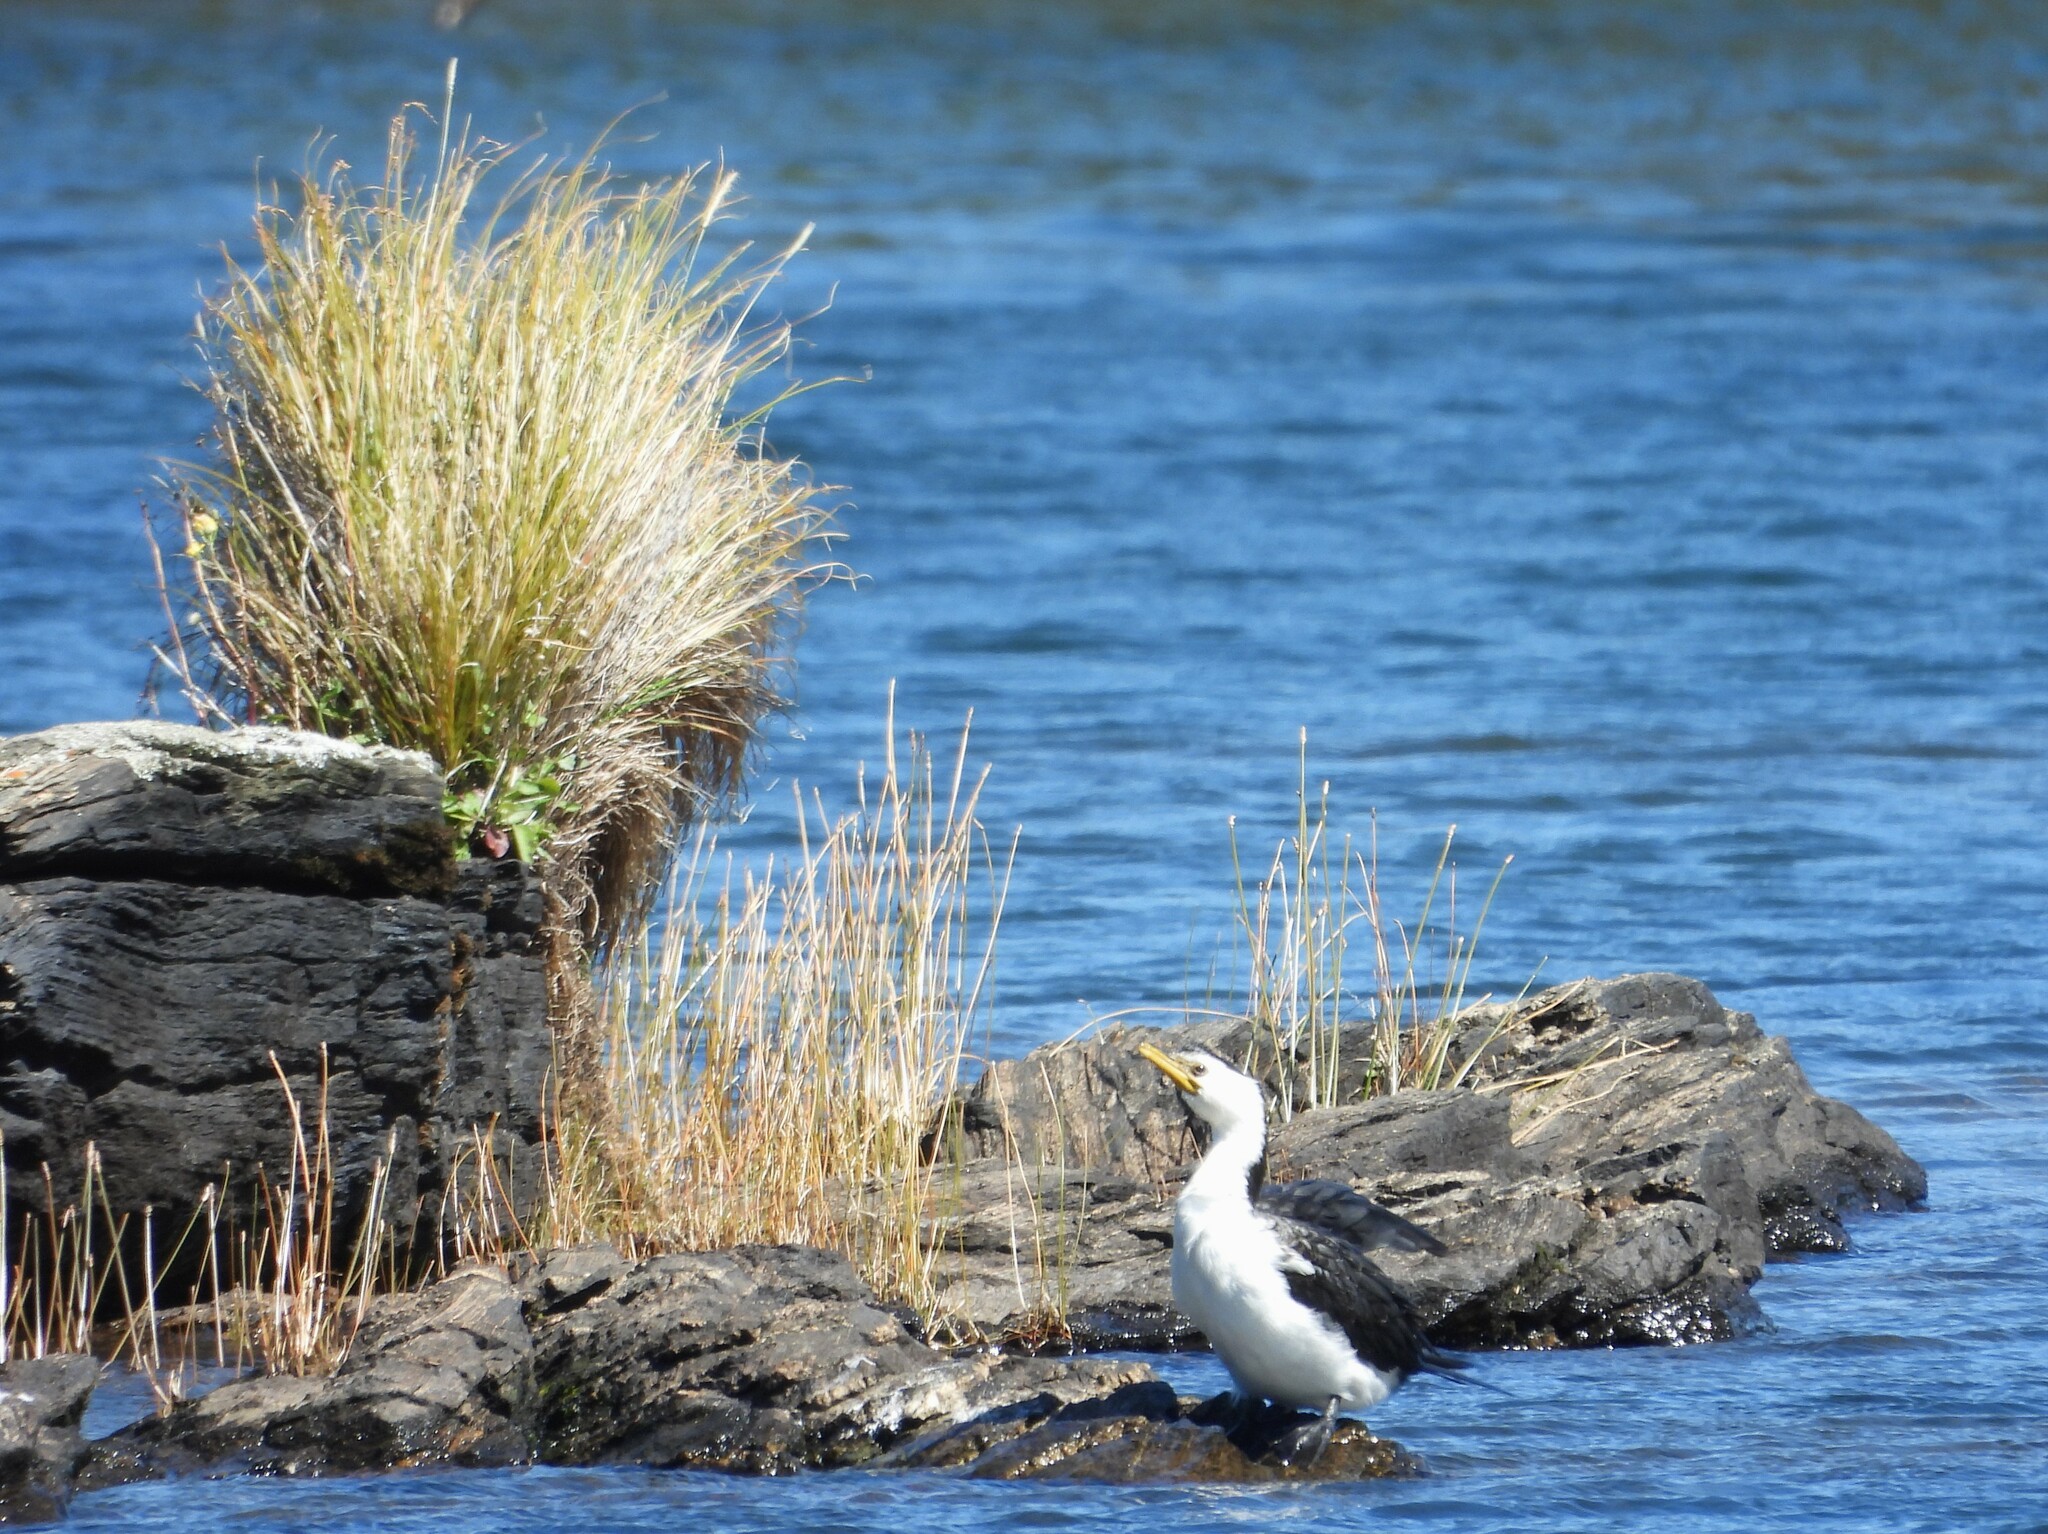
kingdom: Animalia
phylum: Chordata
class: Aves
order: Suliformes
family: Phalacrocoracidae
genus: Microcarbo
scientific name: Microcarbo melanoleucos
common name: Little pied cormorant
